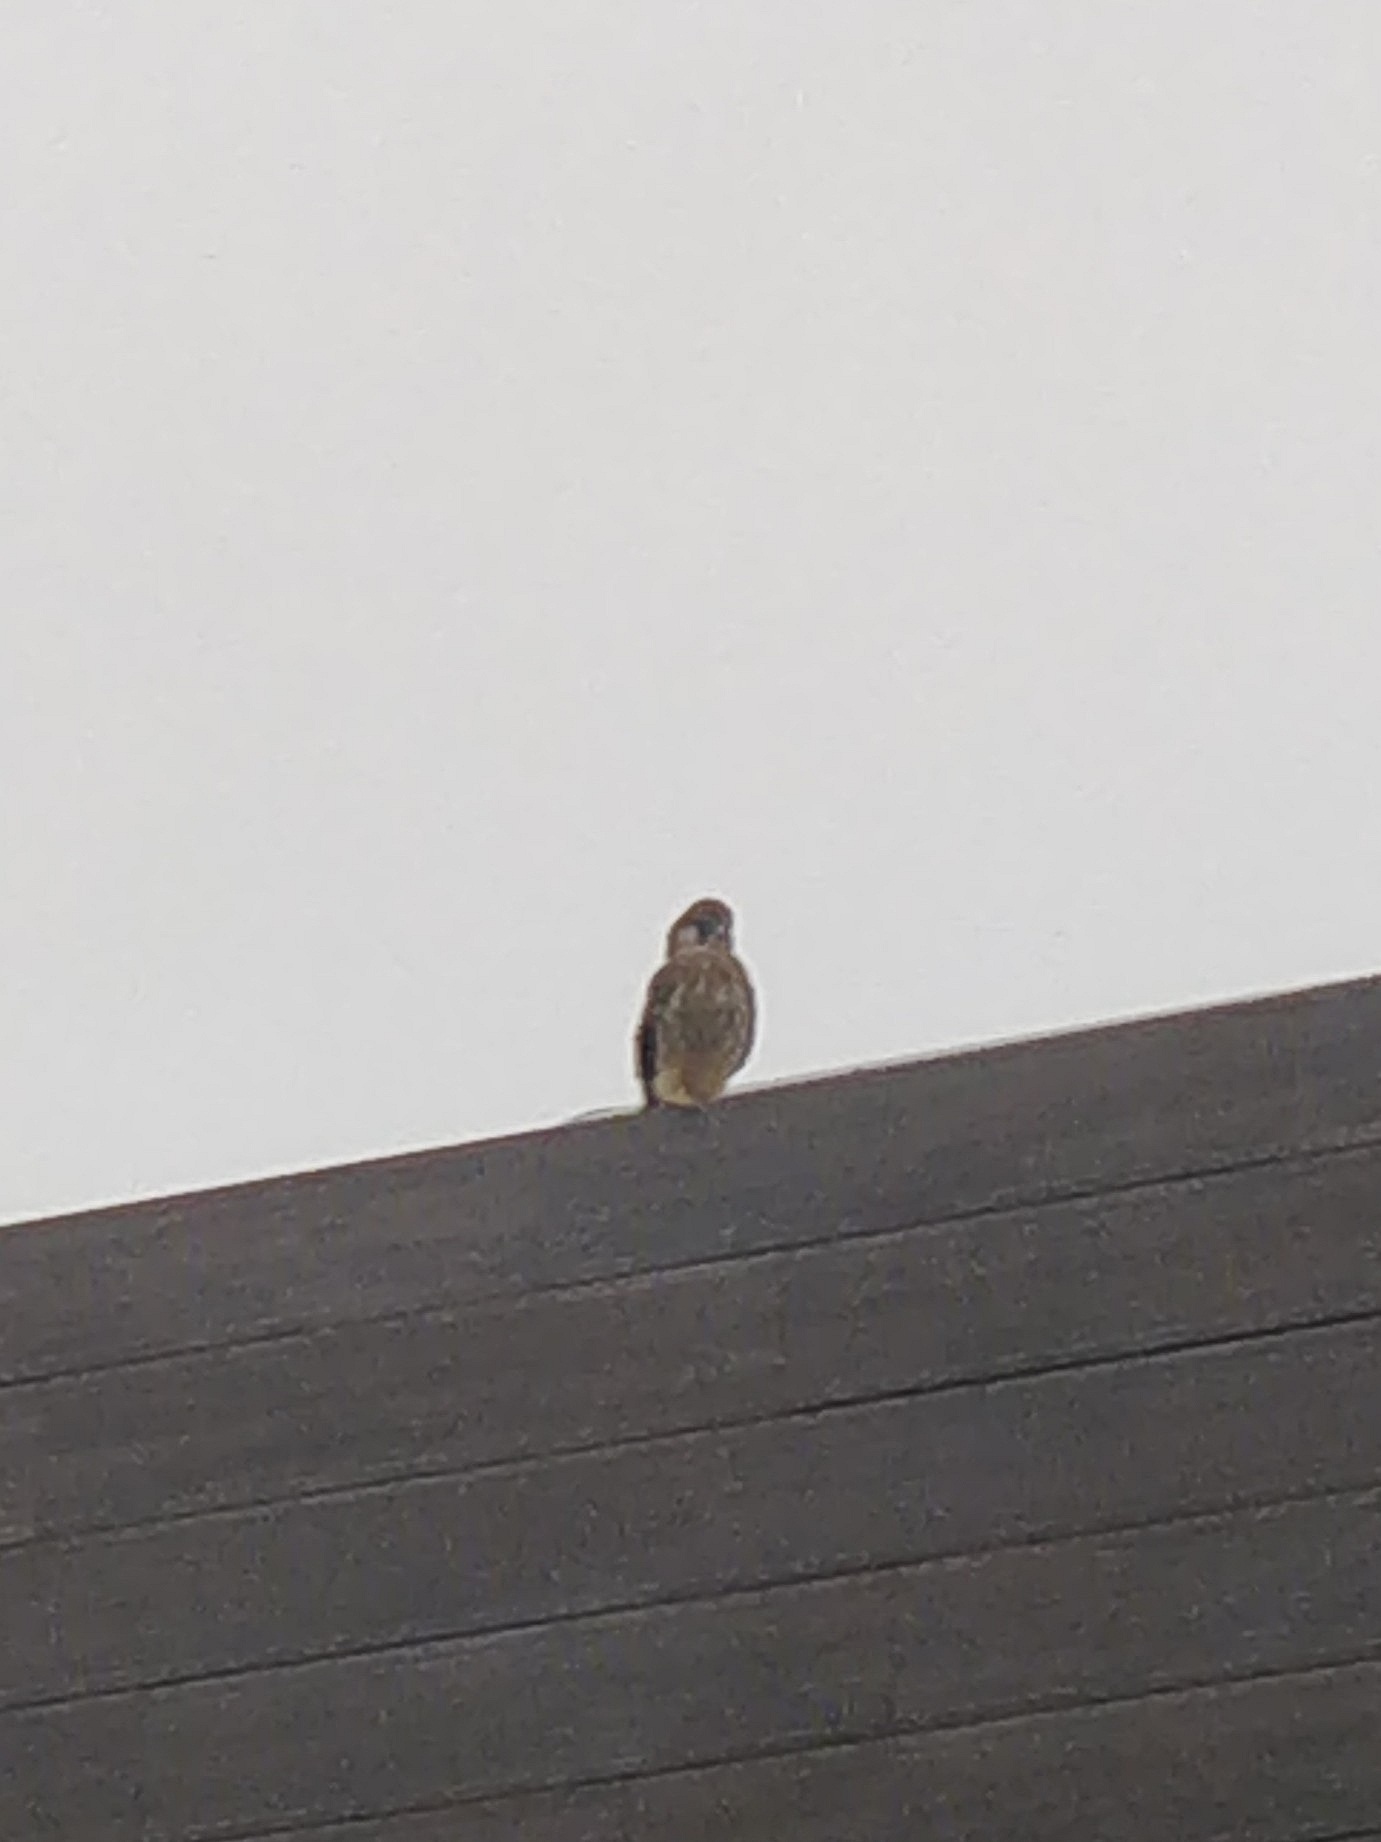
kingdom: Animalia
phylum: Chordata
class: Aves
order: Falconiformes
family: Falconidae
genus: Falco
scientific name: Falco tinnunculus
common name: Common kestrel
